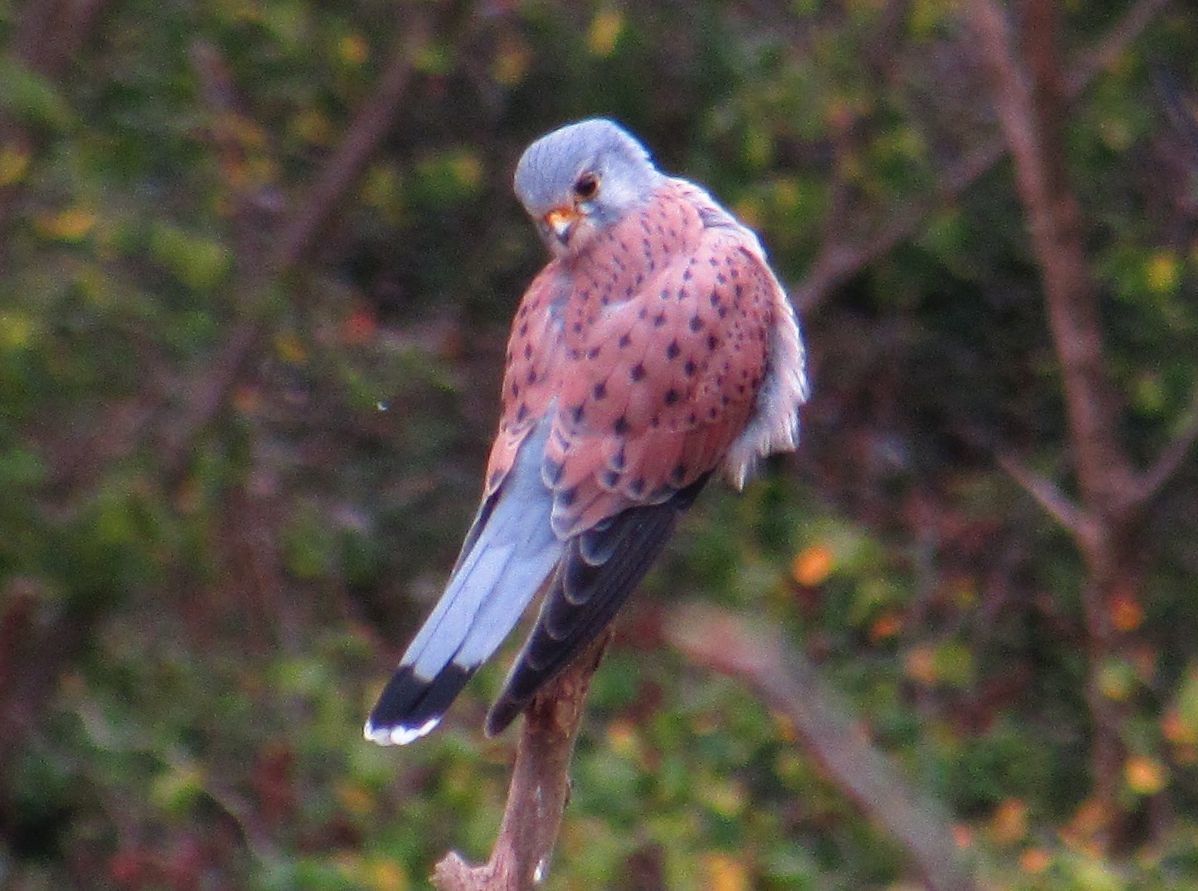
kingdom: Animalia
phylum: Chordata
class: Aves
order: Falconiformes
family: Falconidae
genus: Falco
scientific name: Falco tinnunculus
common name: Common kestrel
